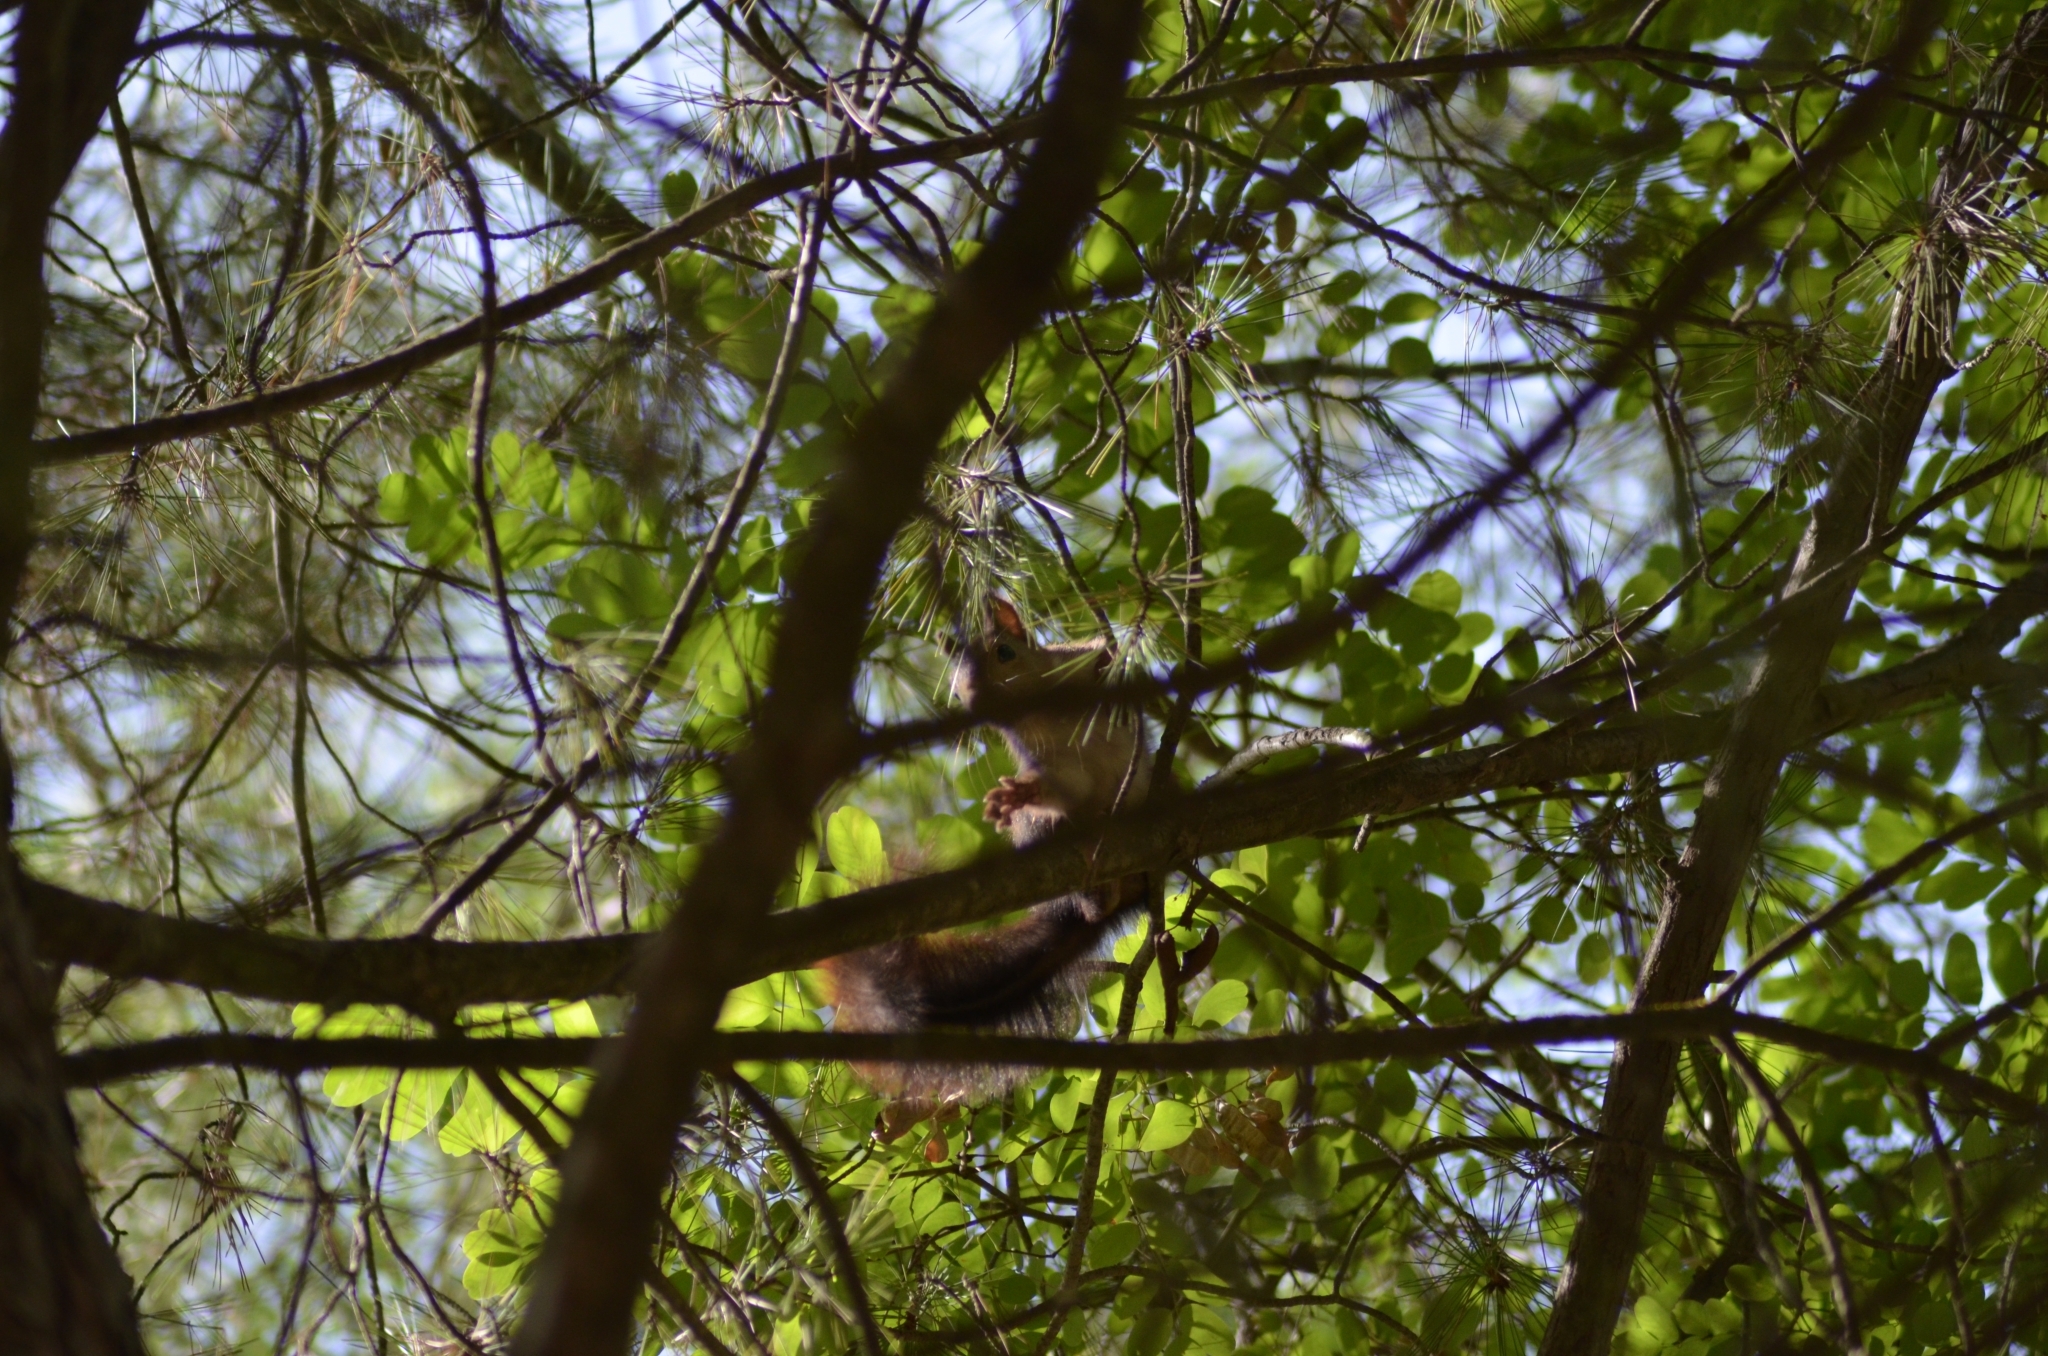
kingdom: Animalia
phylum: Chordata
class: Mammalia
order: Rodentia
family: Sciuridae
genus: Sciurus
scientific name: Sciurus vulgaris
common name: Eurasian red squirrel
